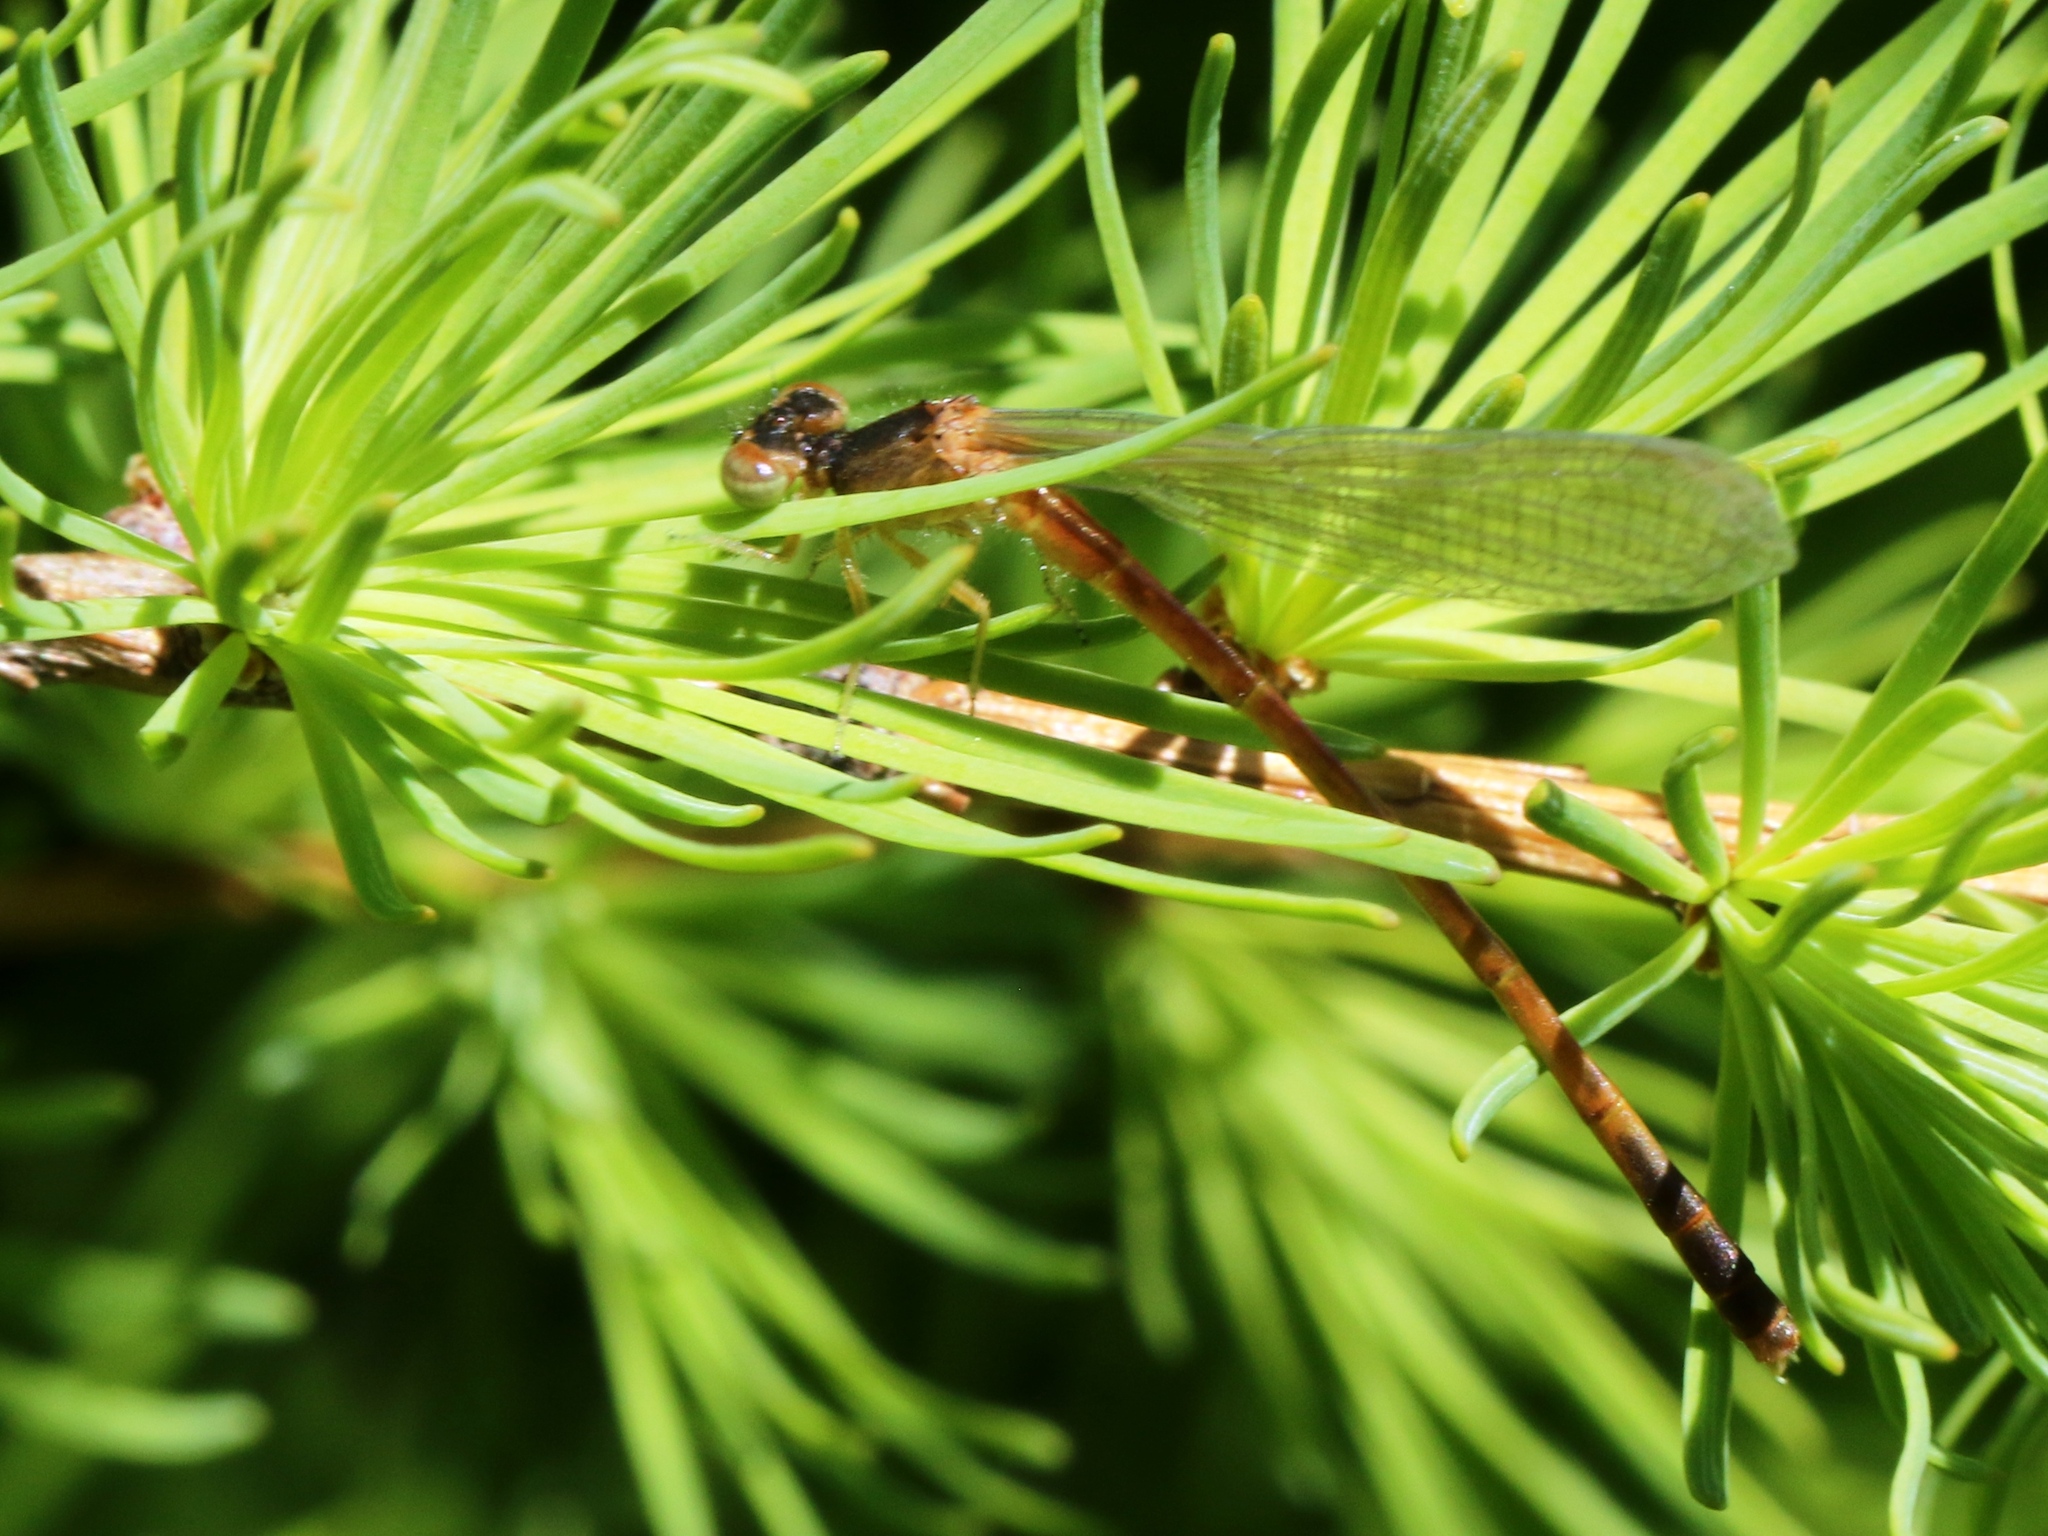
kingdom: Animalia
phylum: Arthropoda
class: Insecta
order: Odonata
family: Coenagrionidae
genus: Amphiagrion
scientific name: Amphiagrion saucium
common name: Eastern red damsel
